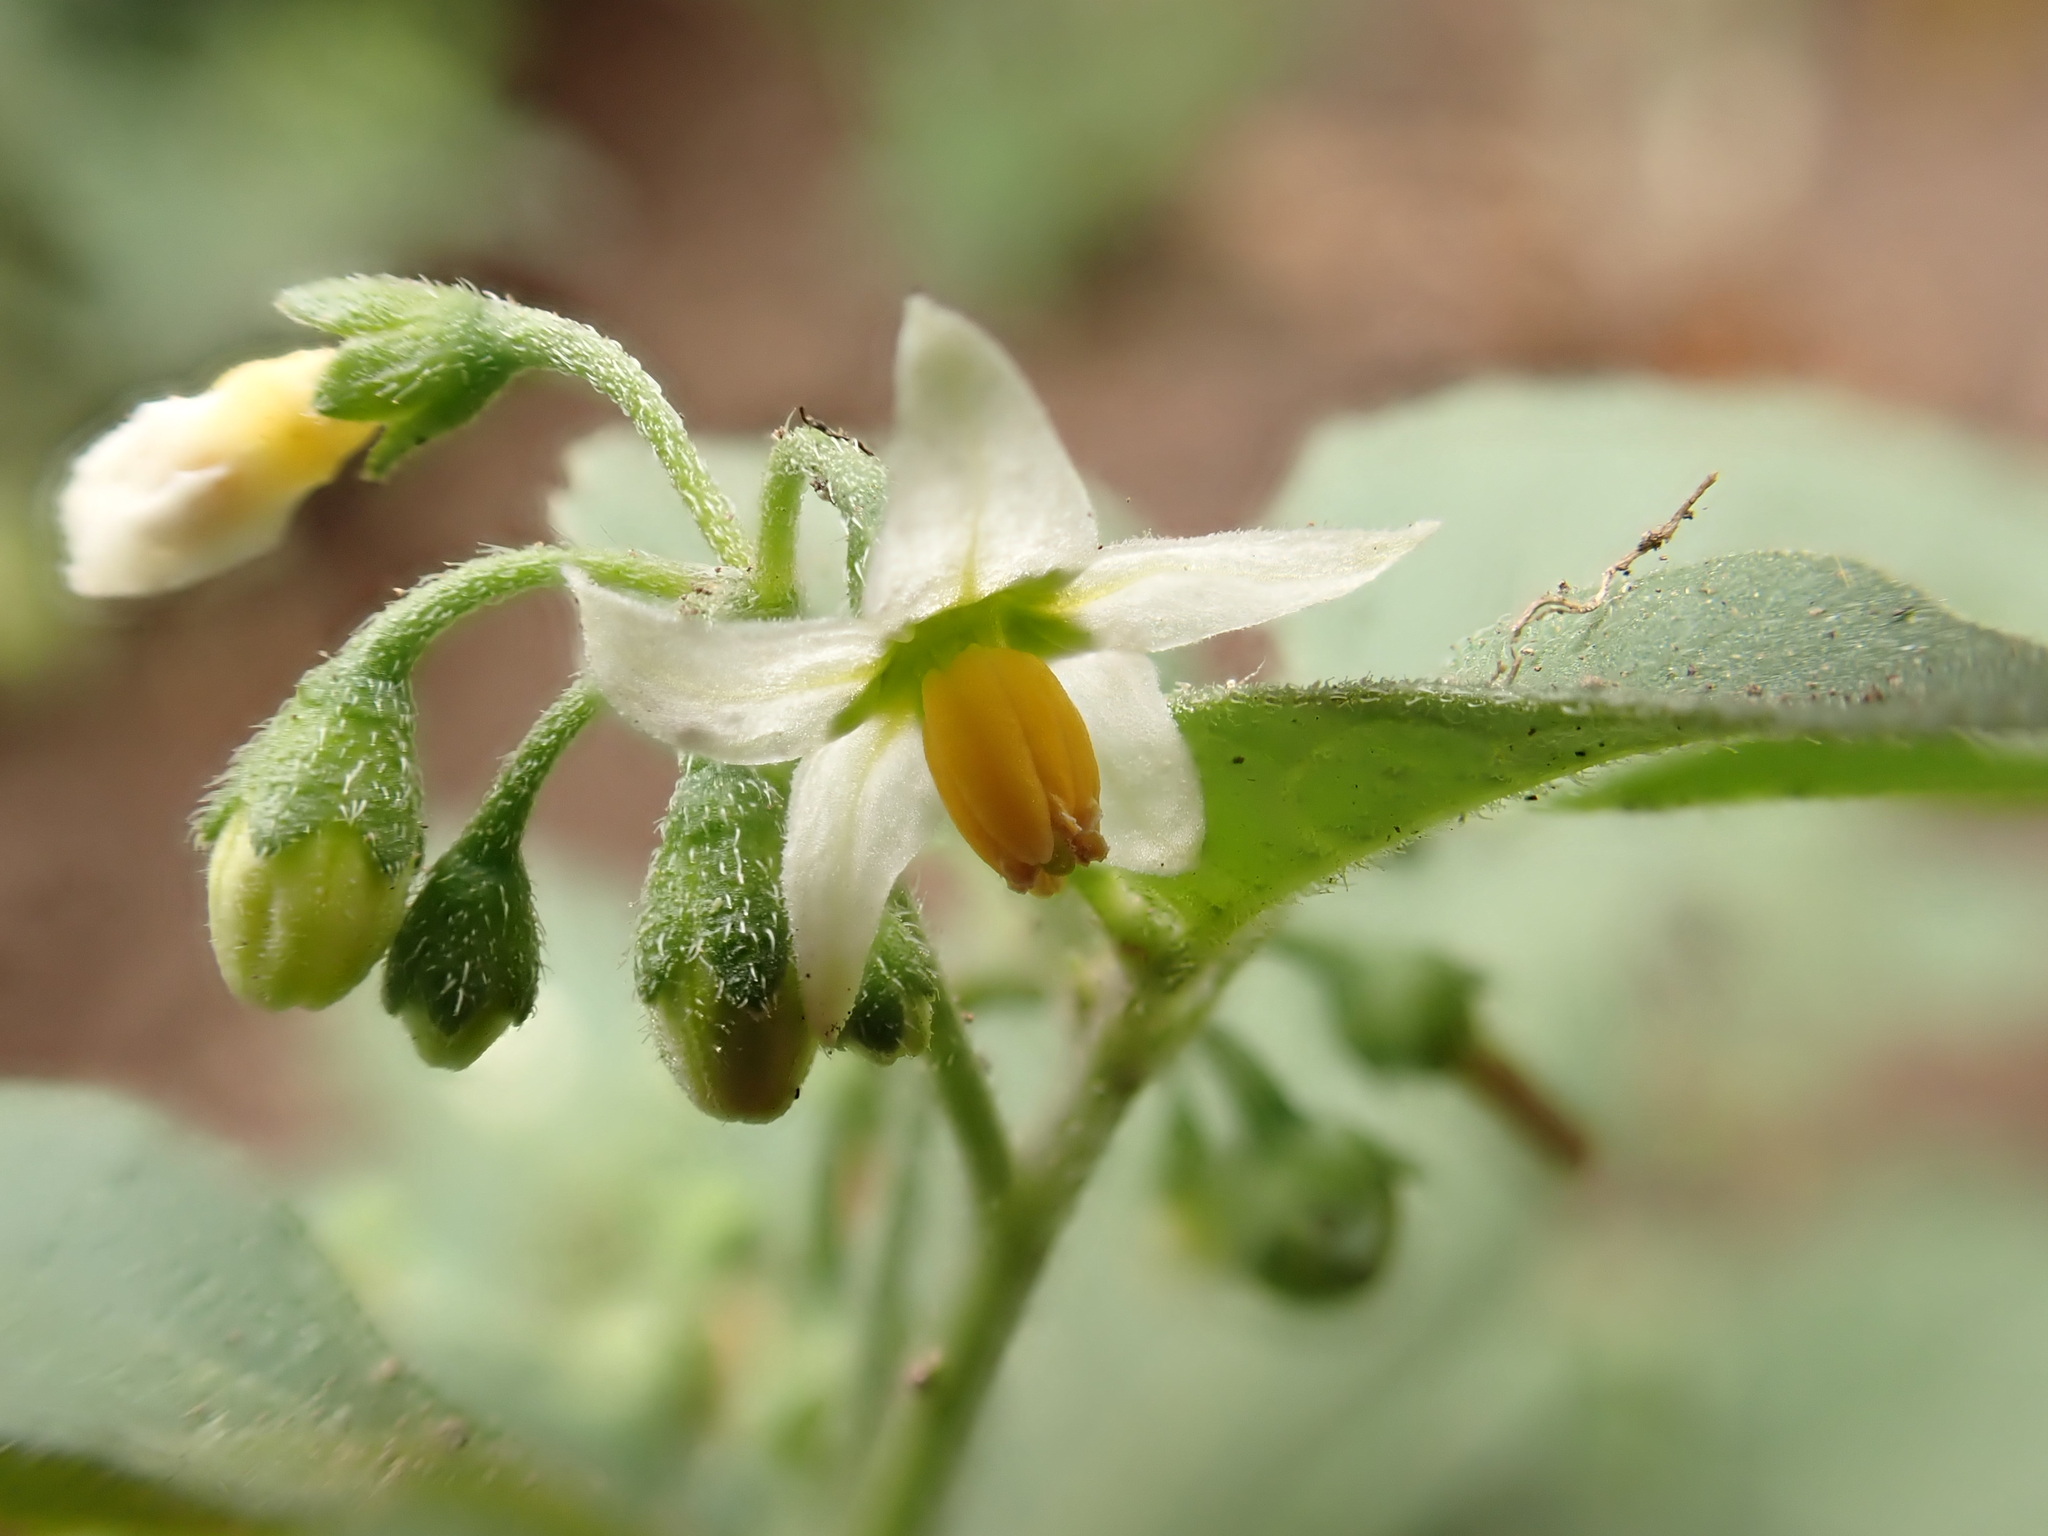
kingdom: Plantae
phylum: Tracheophyta
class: Magnoliopsida
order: Solanales
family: Solanaceae
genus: Solanum
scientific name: Solanum nigrum
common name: Black nightshade
